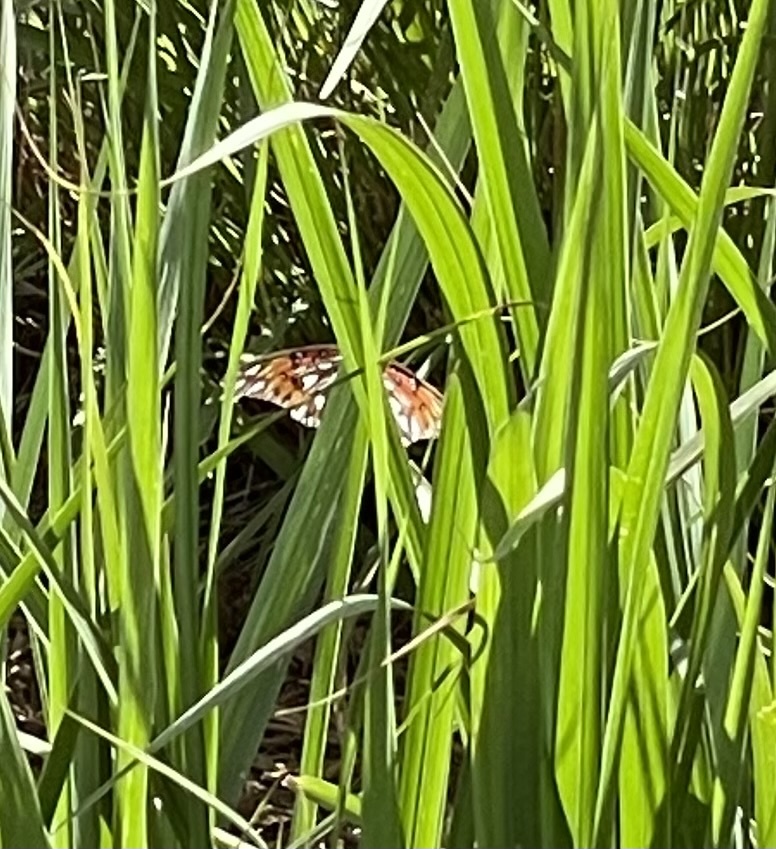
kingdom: Animalia
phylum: Arthropoda
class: Insecta
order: Lepidoptera
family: Nymphalidae
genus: Dione
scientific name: Dione vanillae
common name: Gulf fritillary
